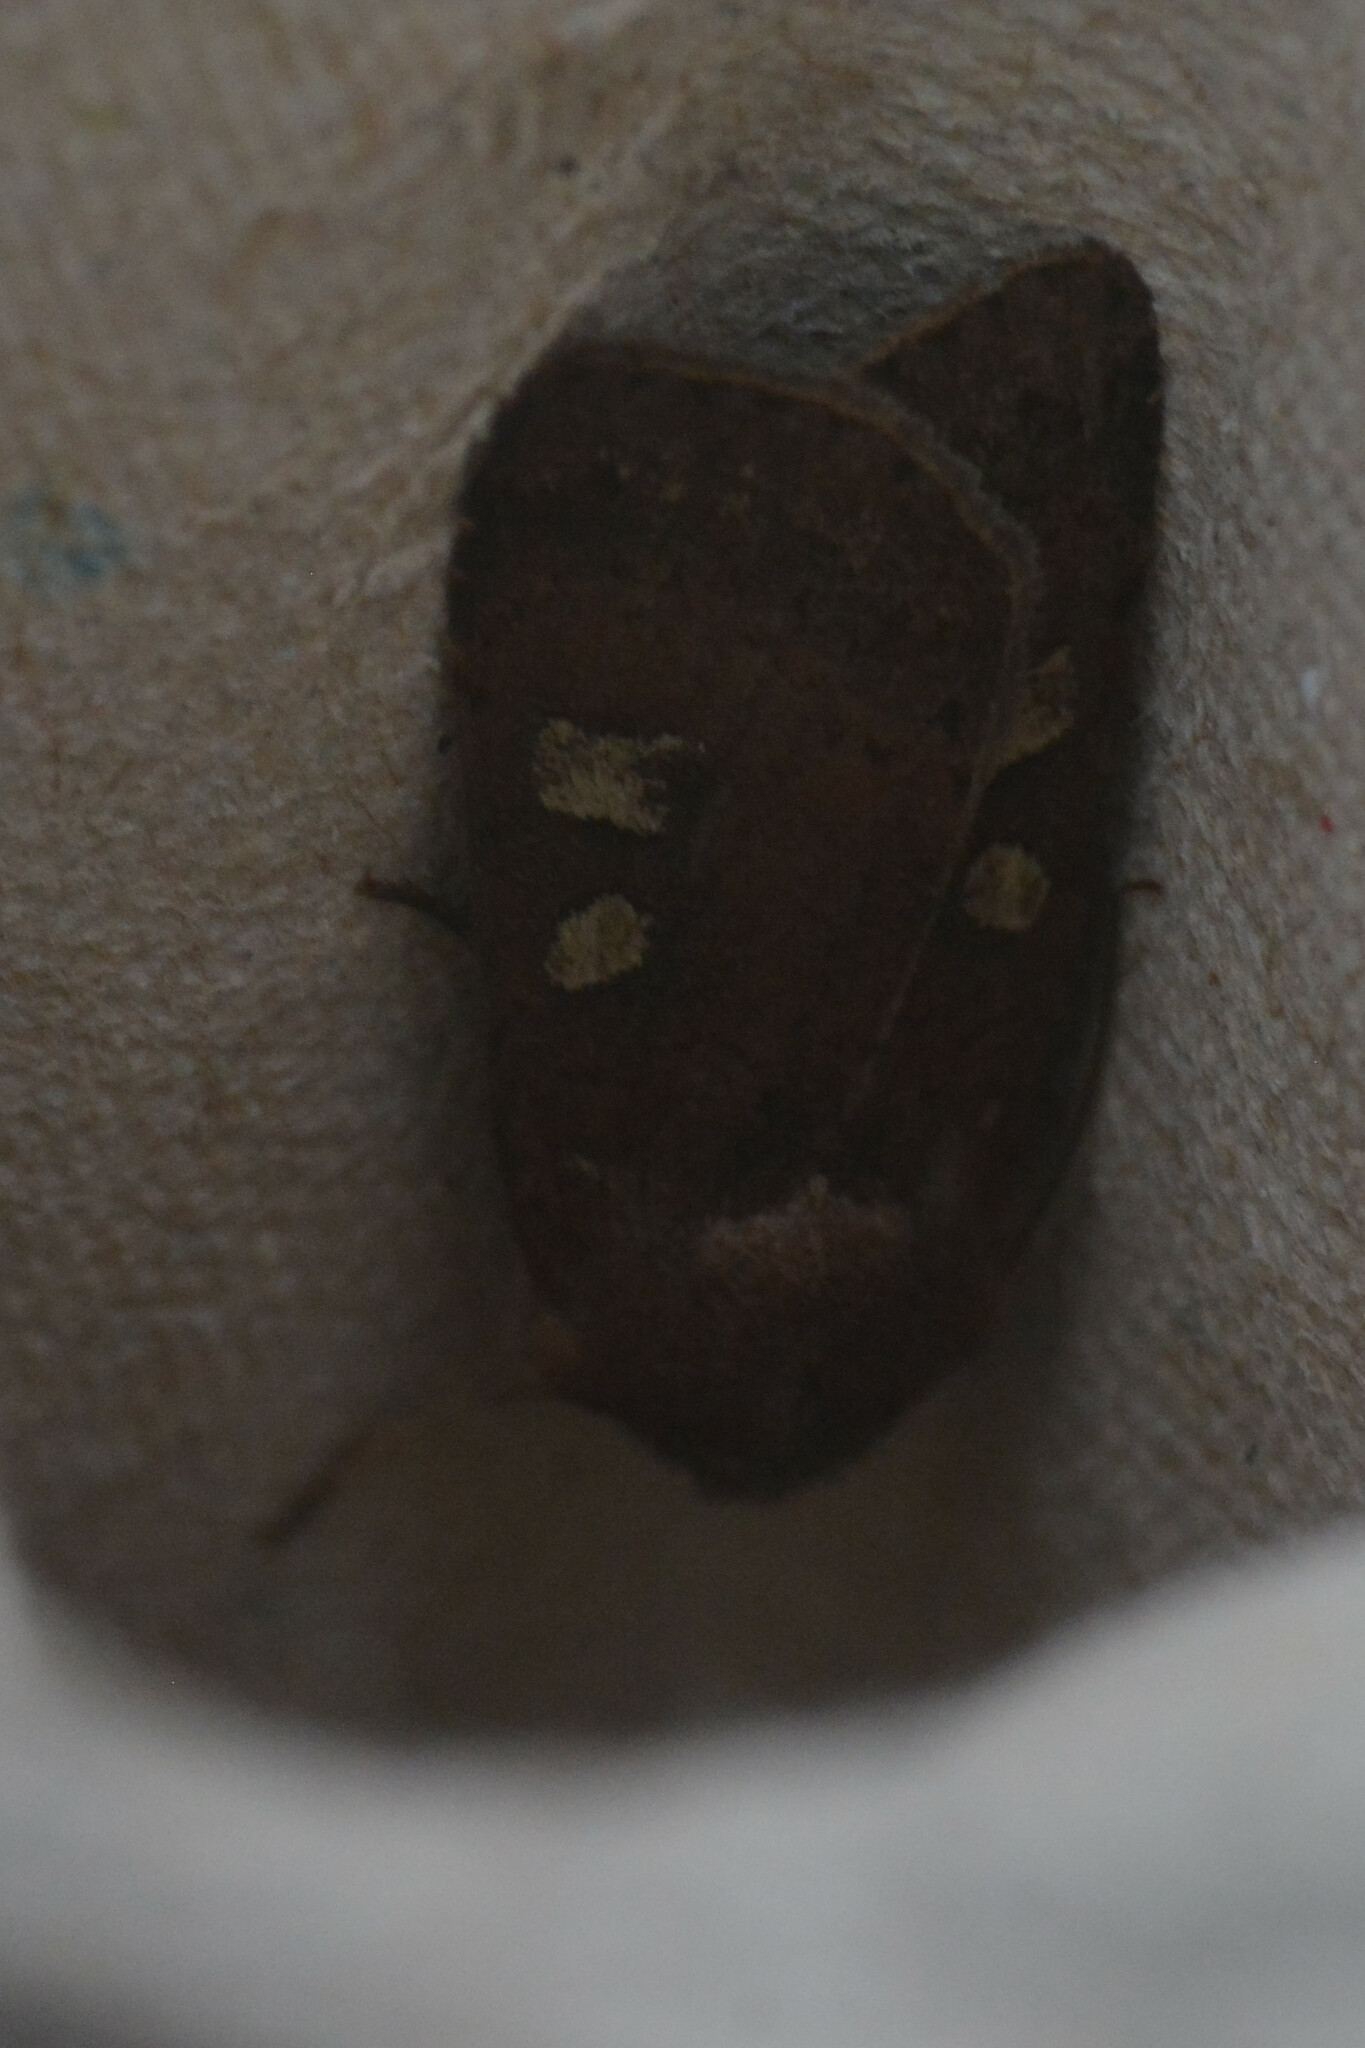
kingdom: Animalia
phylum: Arthropoda
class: Insecta
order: Lepidoptera
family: Noctuidae
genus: Xestia
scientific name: Xestia xanthographa
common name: Square-spot rustic
